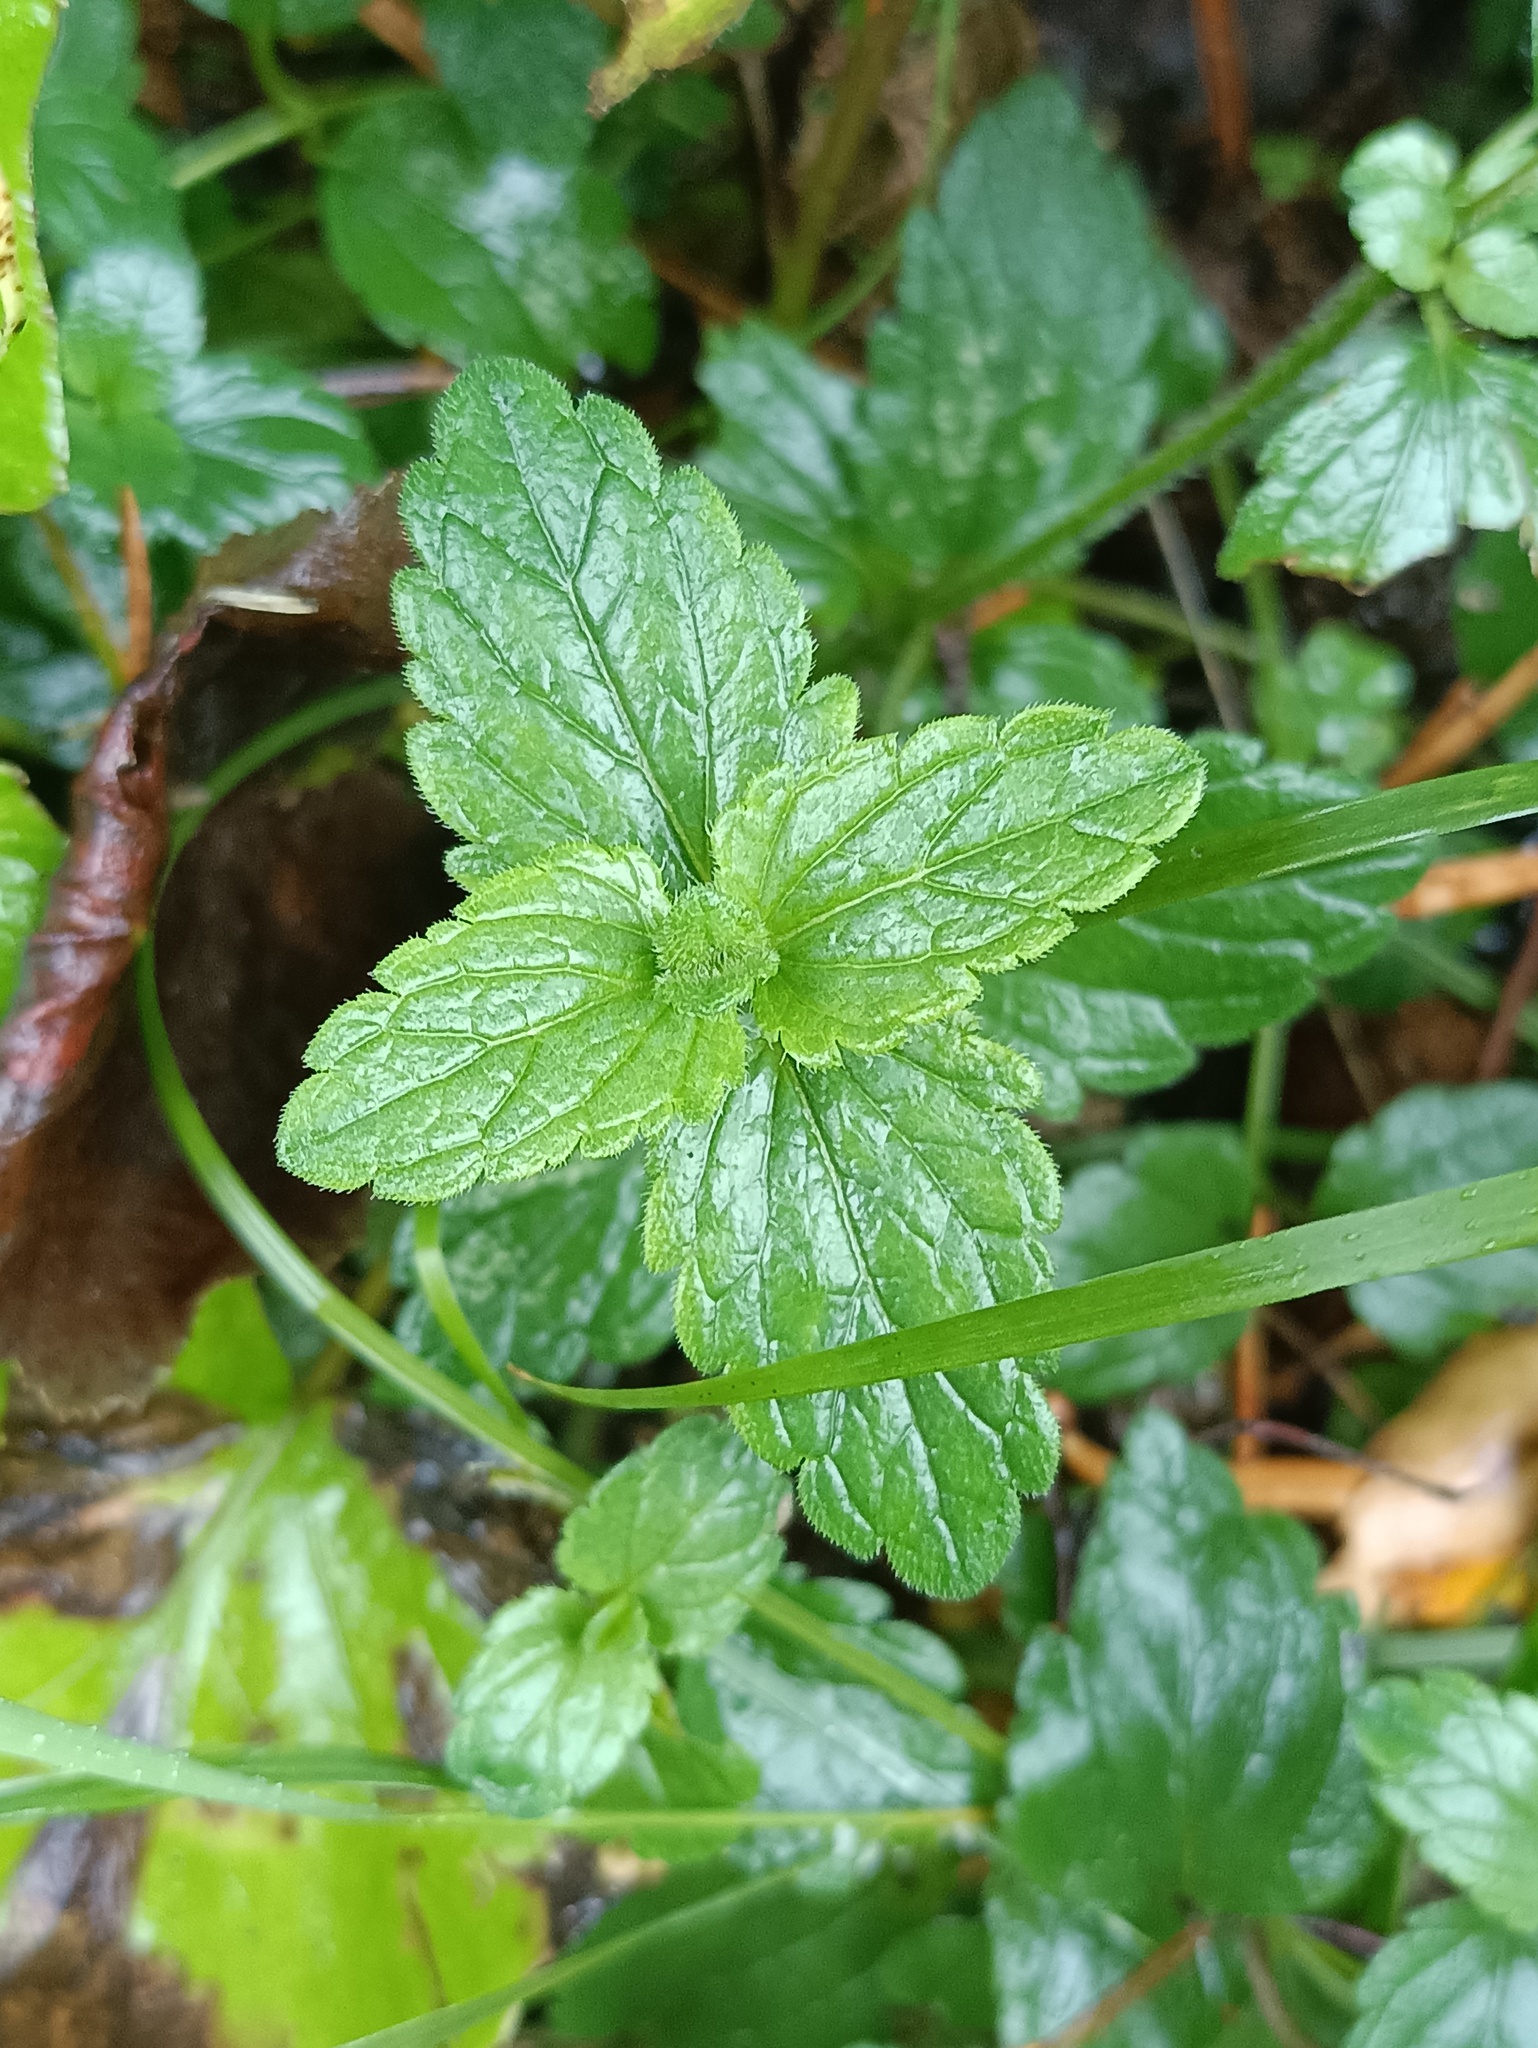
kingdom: Plantae
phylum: Tracheophyta
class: Magnoliopsida
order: Lamiales
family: Plantaginaceae
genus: Veronica
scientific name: Veronica chamaedrys
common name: Germander speedwell
